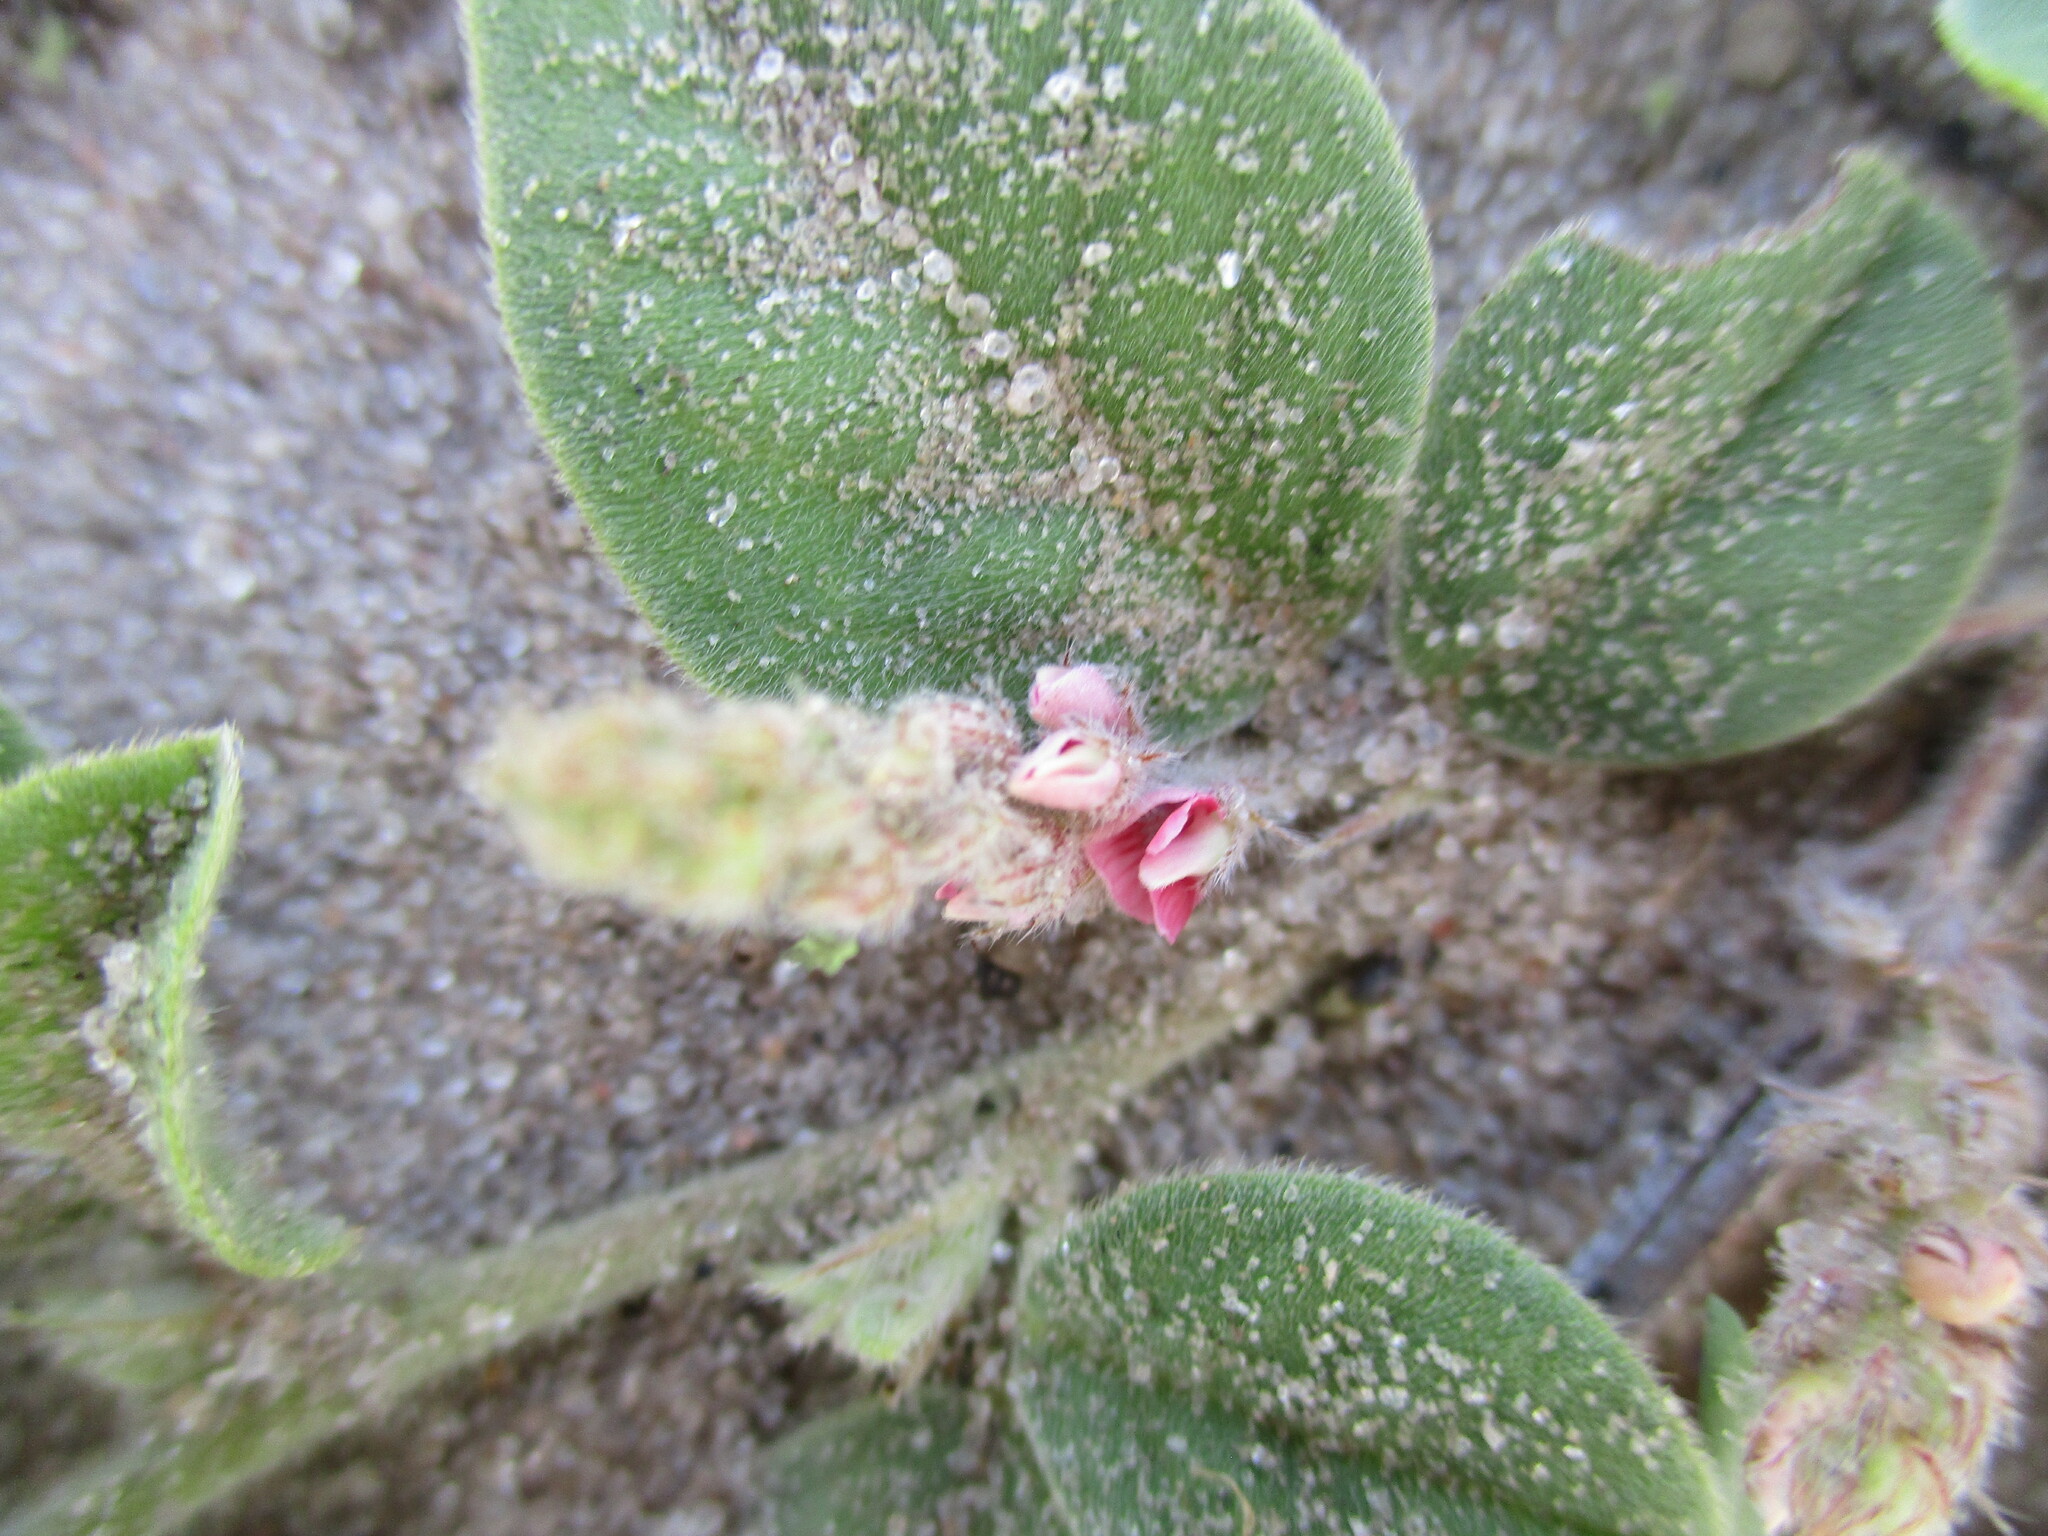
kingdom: Plantae
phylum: Tracheophyta
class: Magnoliopsida
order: Fabales
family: Fabaceae
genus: Indigofera
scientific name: Indigofera flavicans
